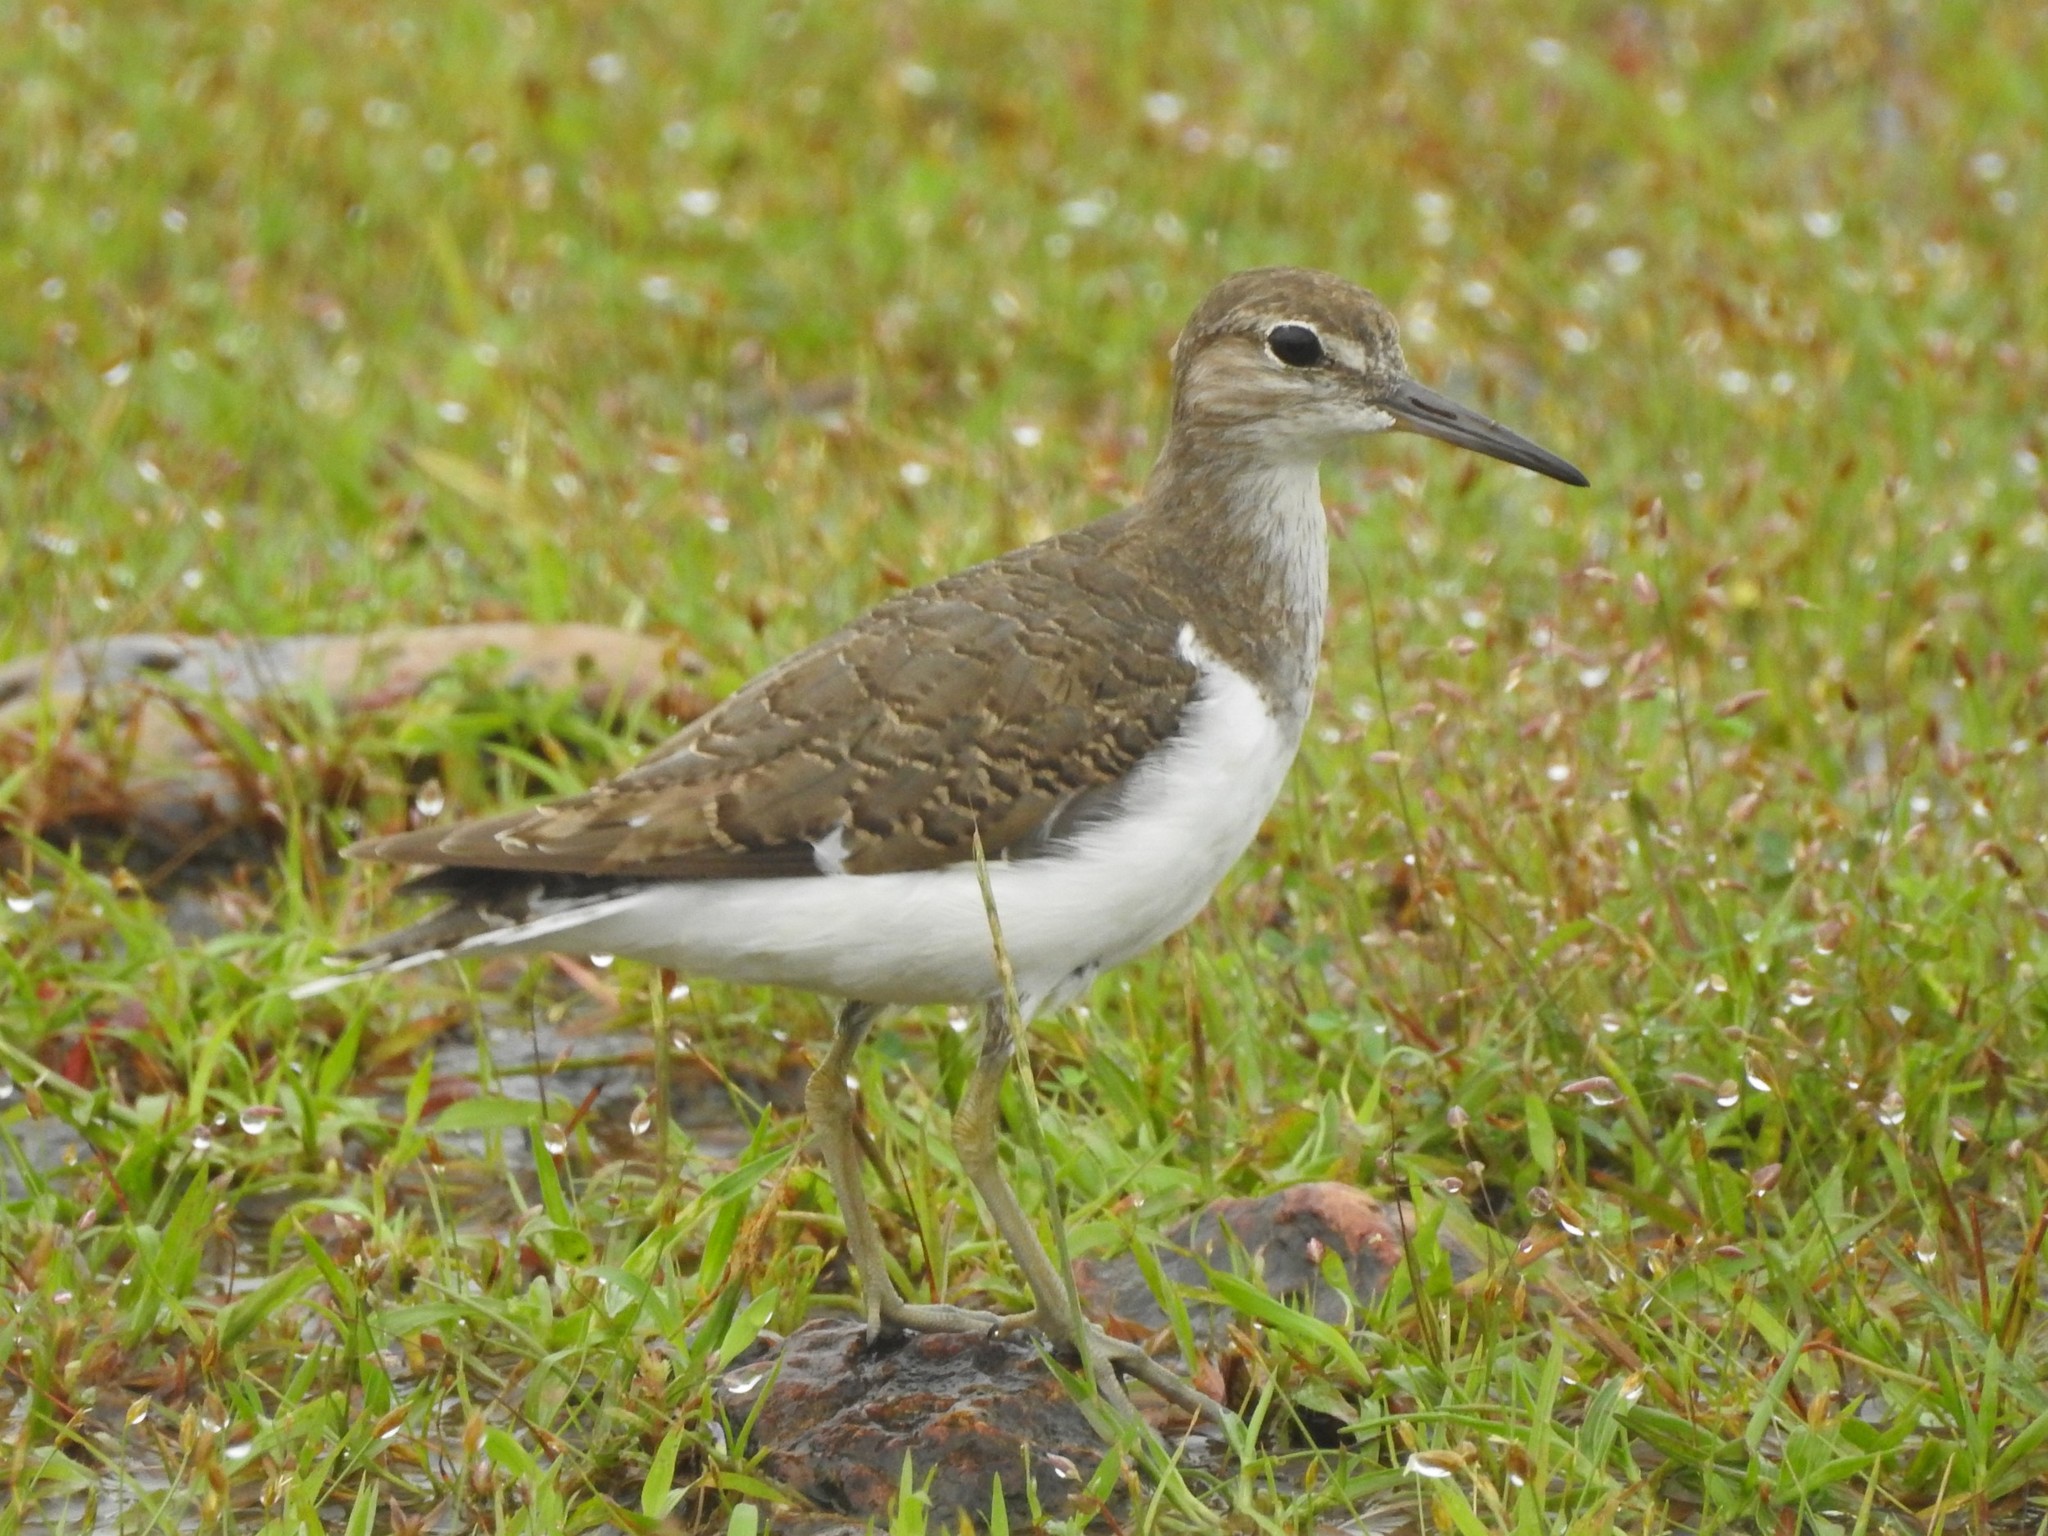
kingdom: Animalia
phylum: Chordata
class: Aves
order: Charadriiformes
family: Scolopacidae
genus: Actitis
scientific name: Actitis hypoleucos
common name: Common sandpiper
